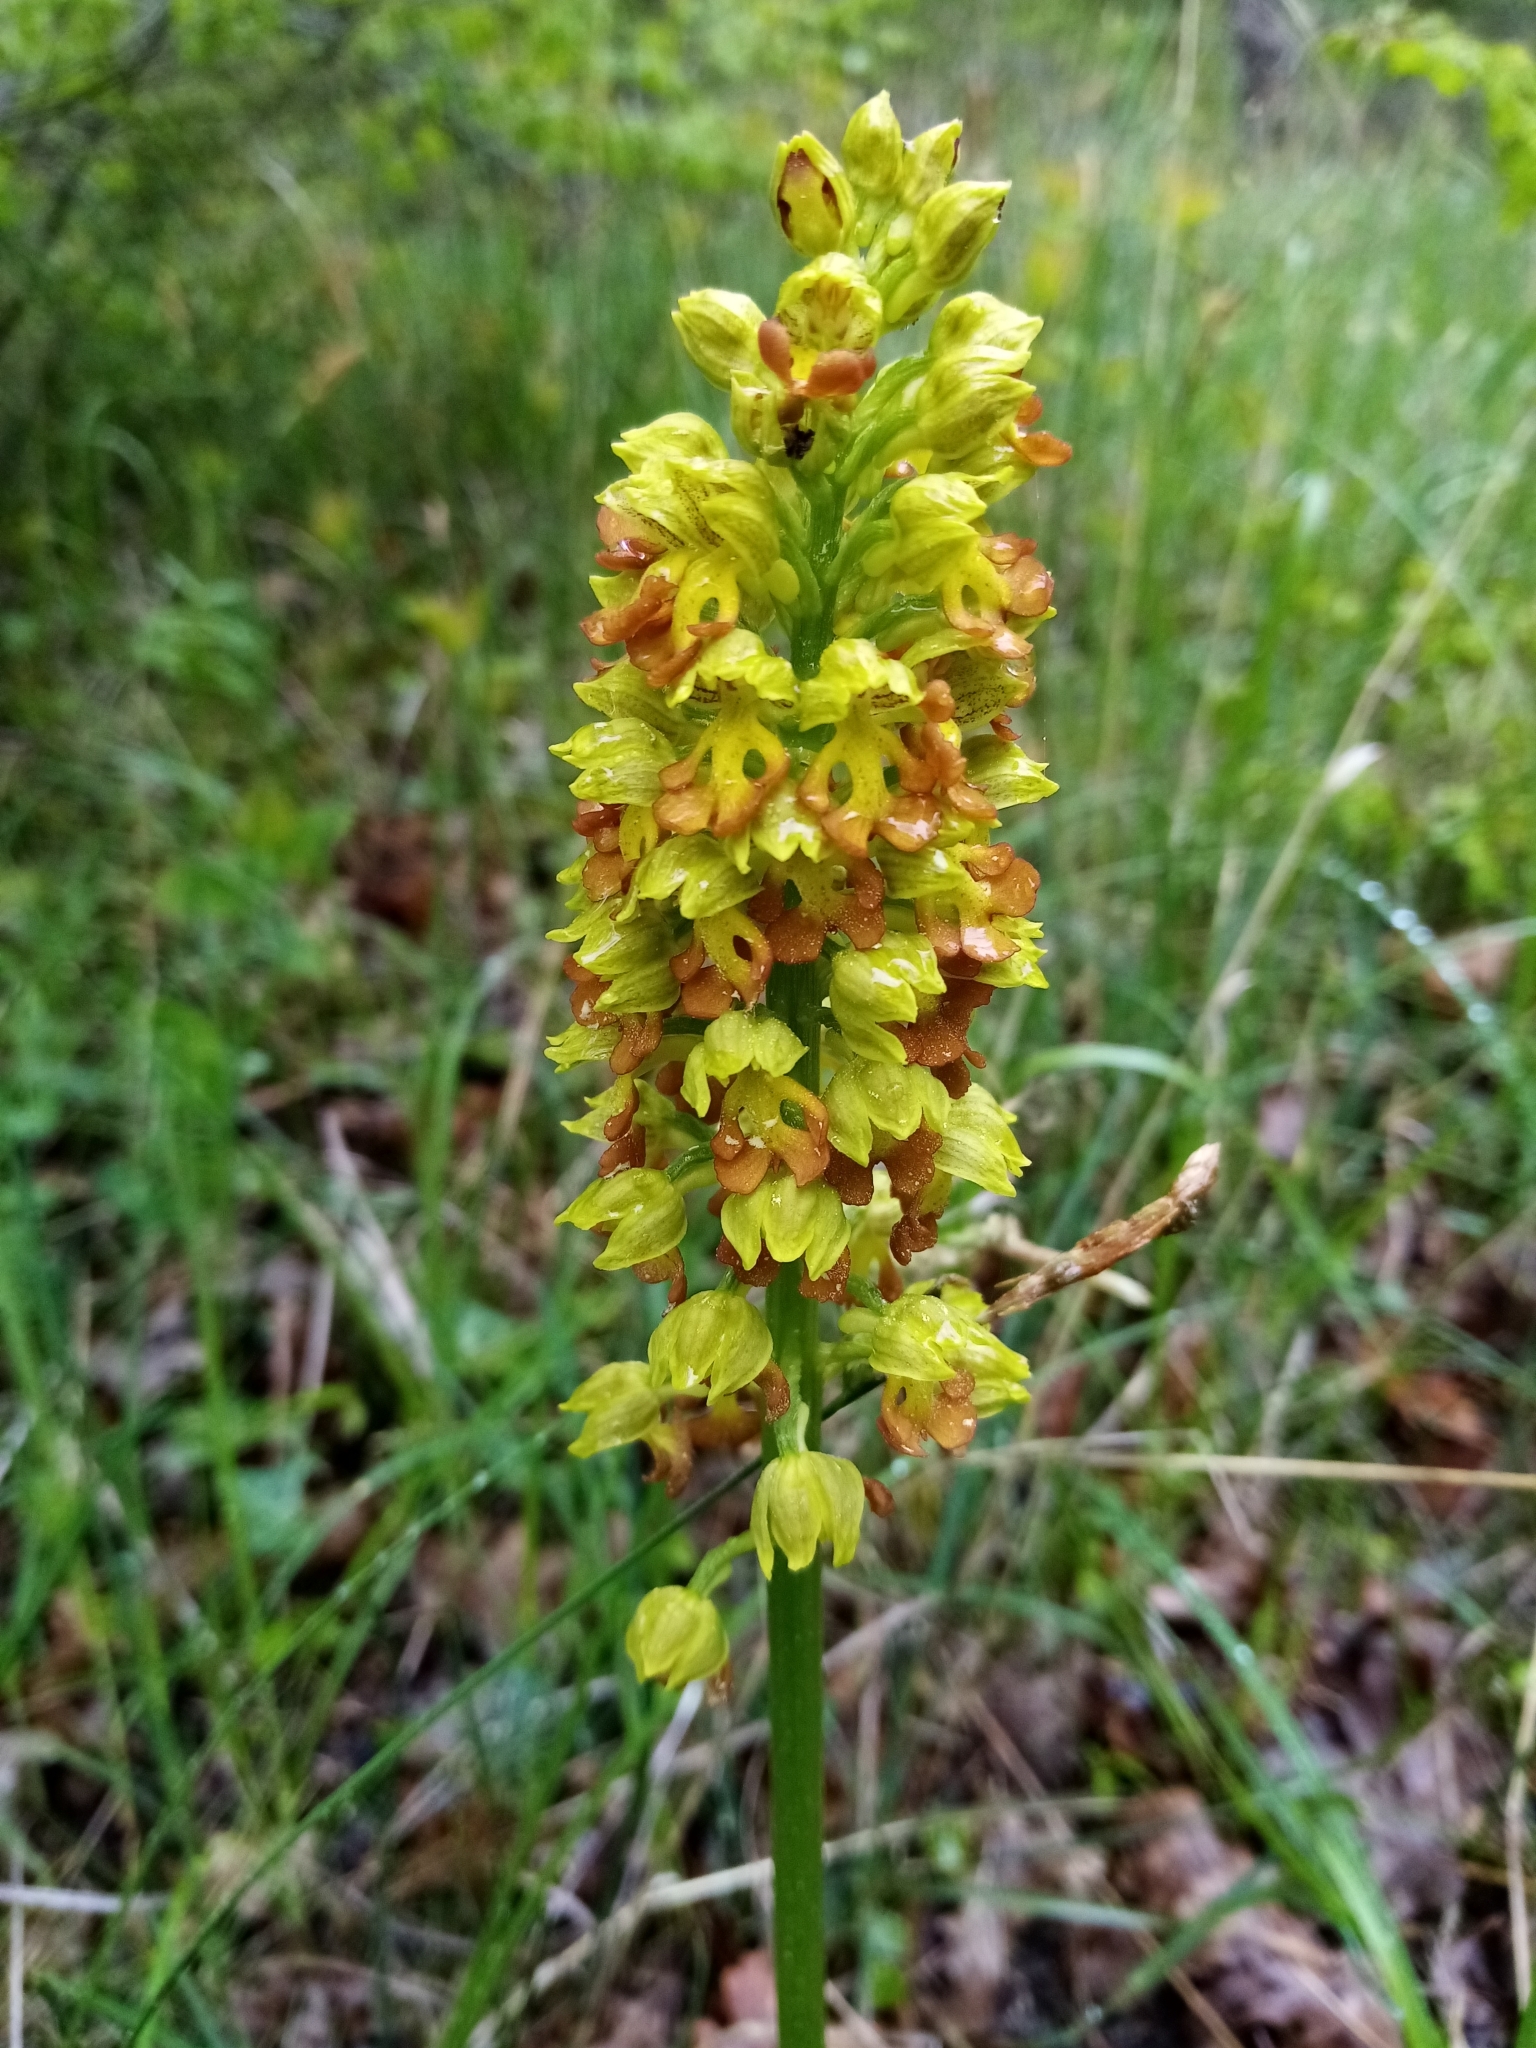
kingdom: Plantae
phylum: Tracheophyta
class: Liliopsida
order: Asparagales
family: Orchidaceae
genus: Orchis
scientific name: Orchis punctulata
